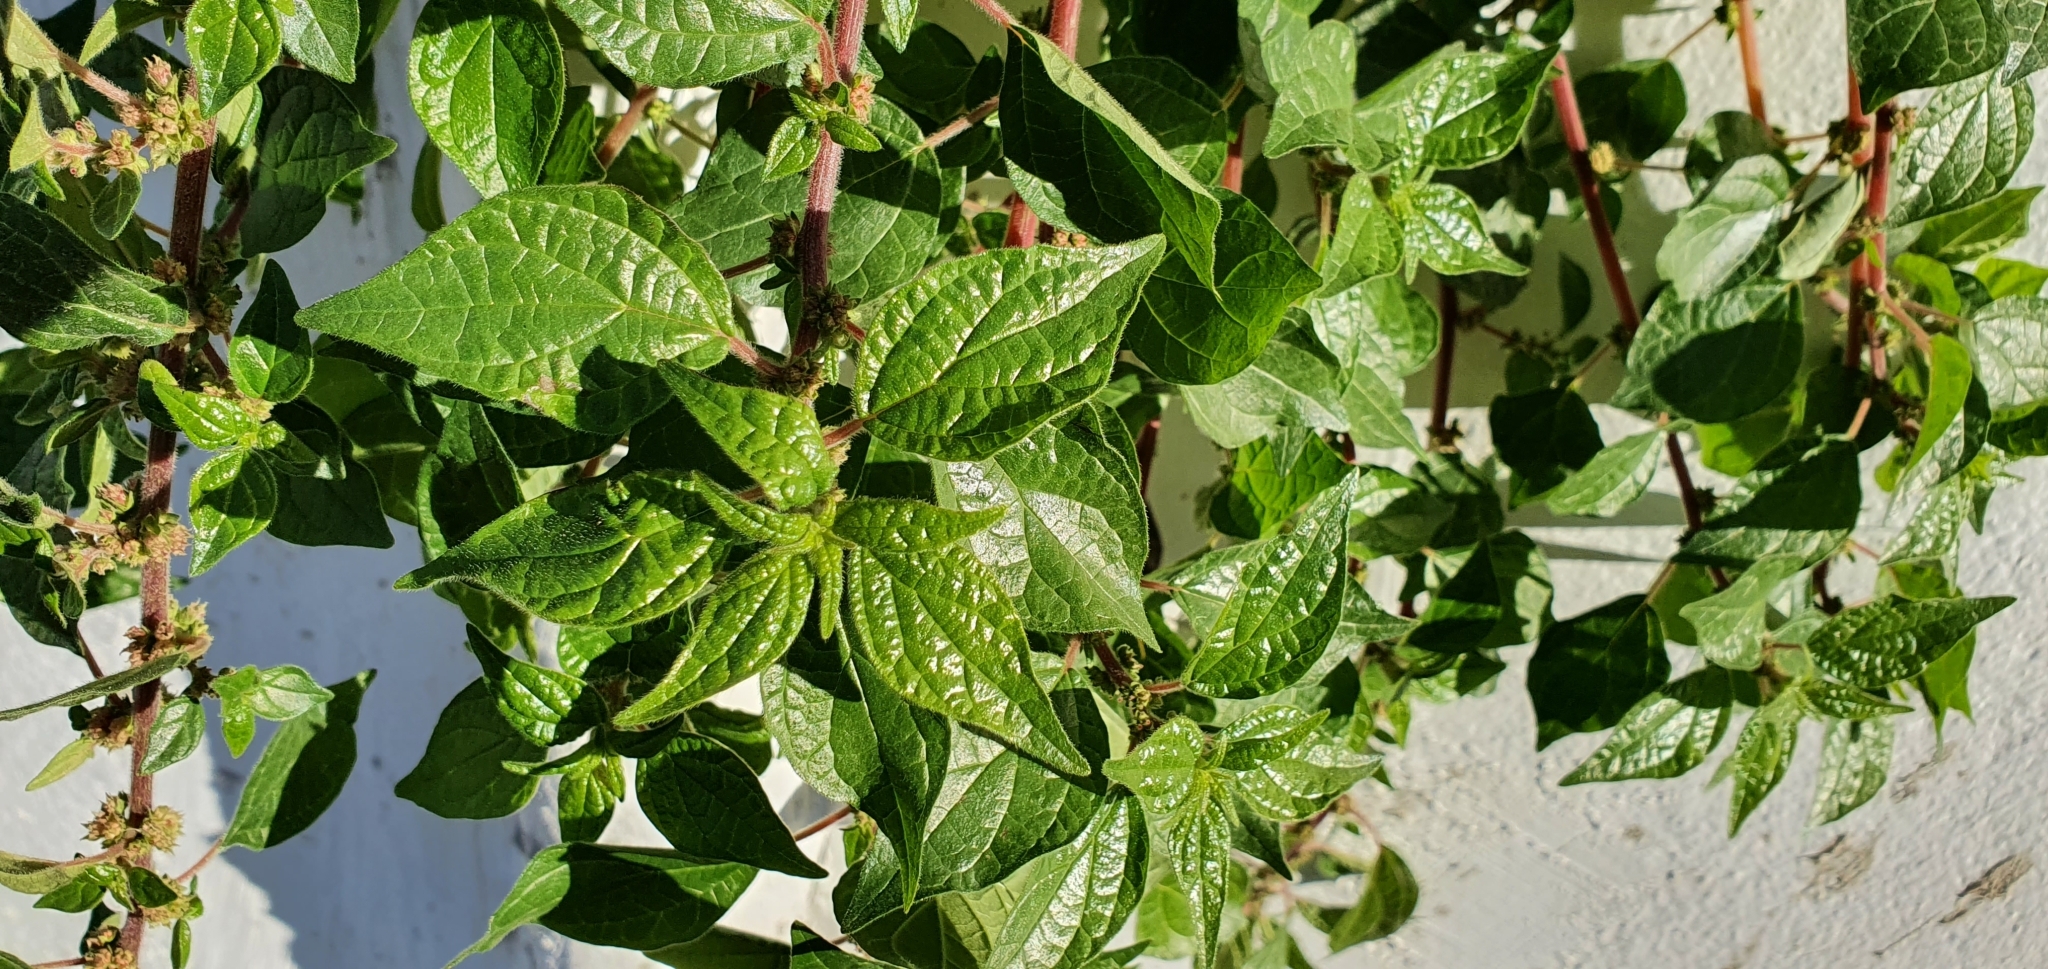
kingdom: Plantae
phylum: Tracheophyta
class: Magnoliopsida
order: Rosales
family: Urticaceae
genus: Parietaria
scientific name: Parietaria judaica
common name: Pellitory-of-the-wall
